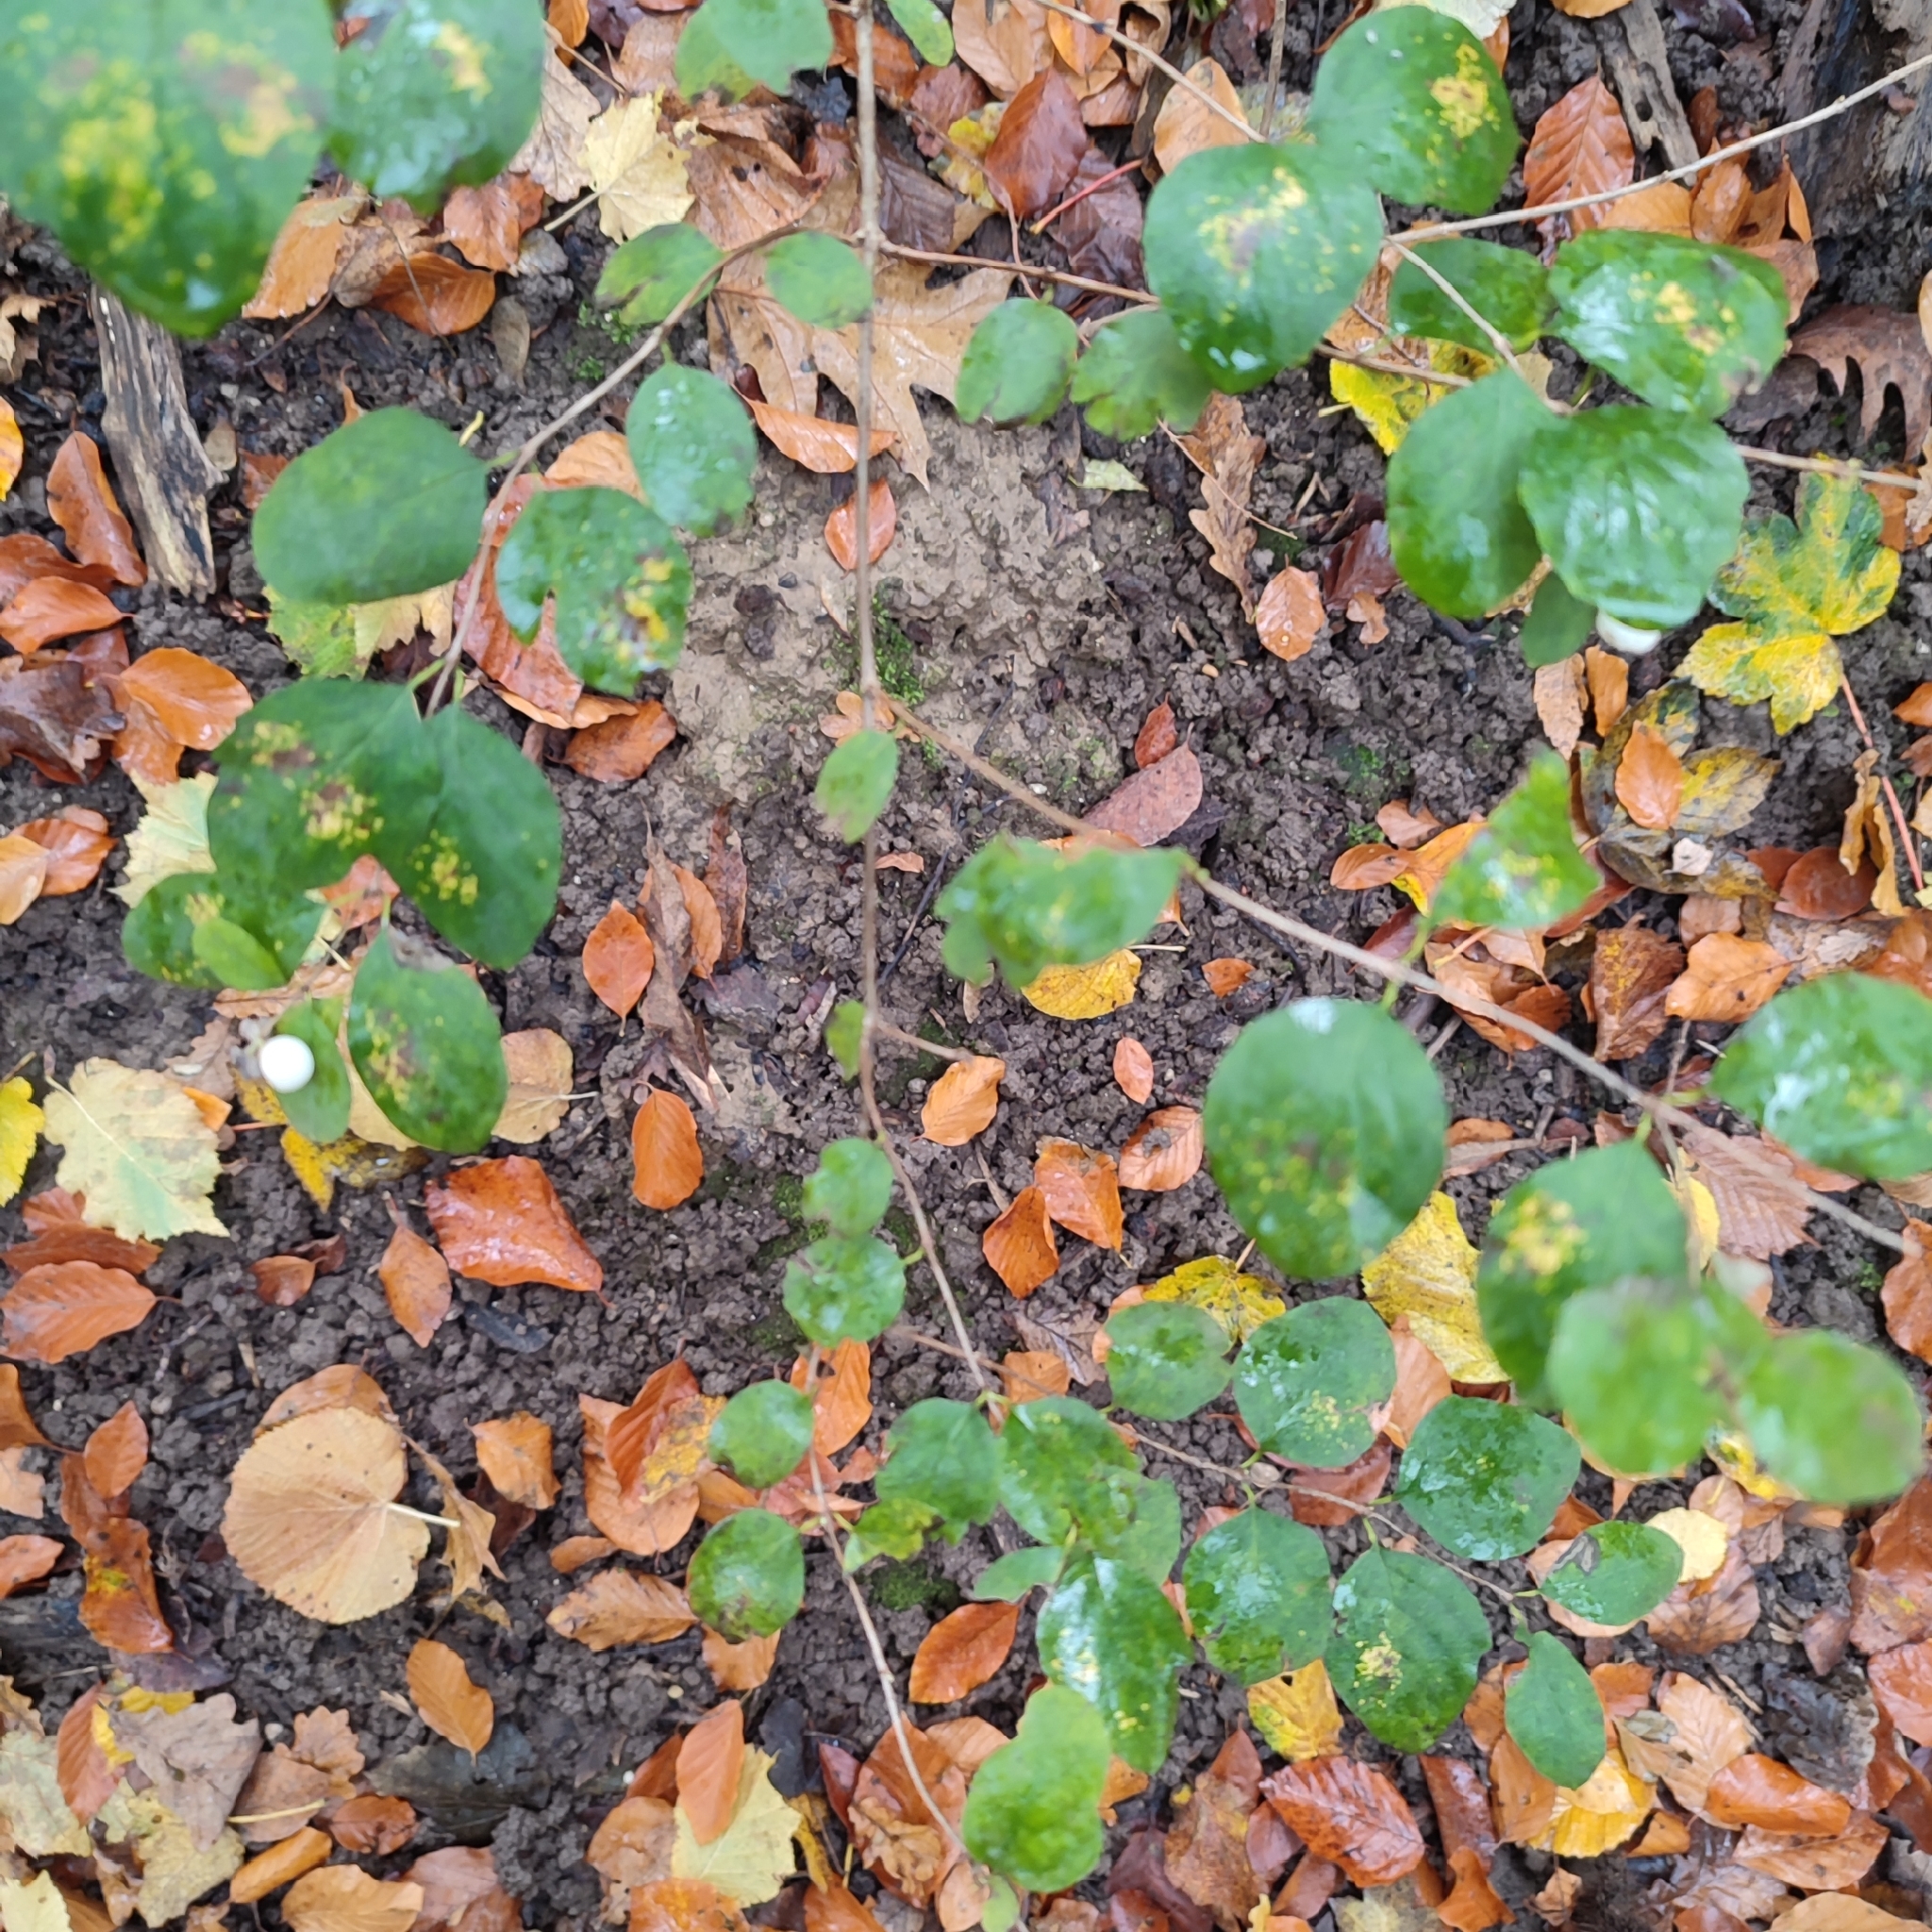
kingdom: Plantae
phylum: Tracheophyta
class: Magnoliopsida
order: Dipsacales
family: Caprifoliaceae
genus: Symphoricarpos
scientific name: Symphoricarpos albus
